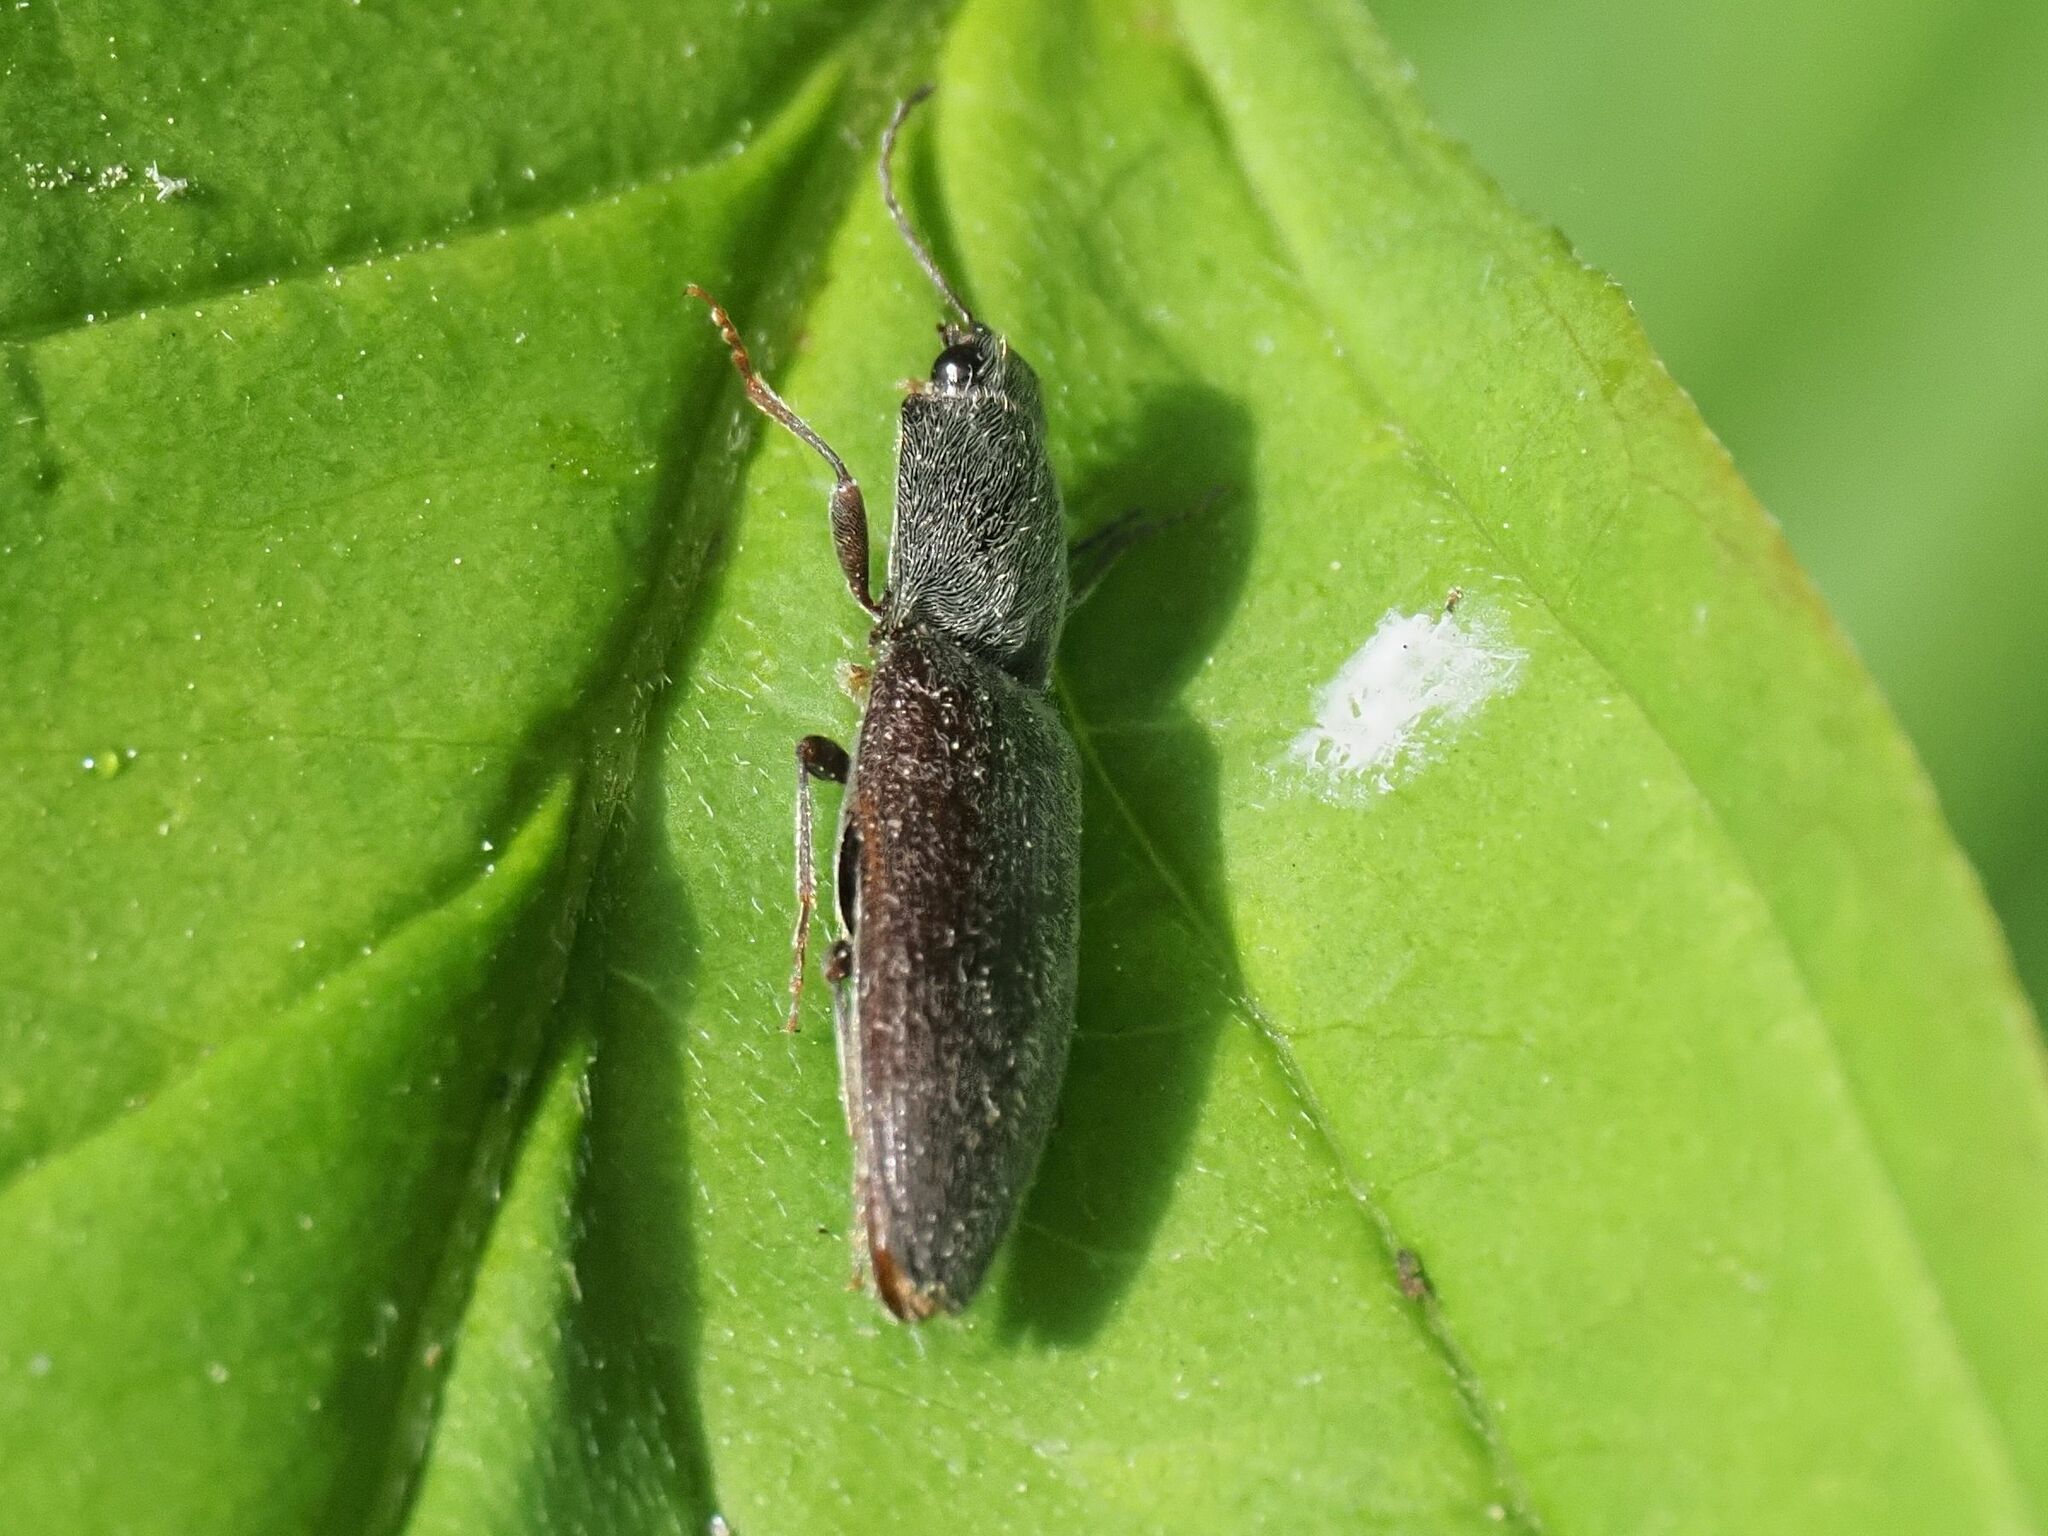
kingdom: Animalia
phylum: Arthropoda
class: Insecta
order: Coleoptera
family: Elateridae
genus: Athous
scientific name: Athous haemorrhoidalis
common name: Red-brown click beetle
